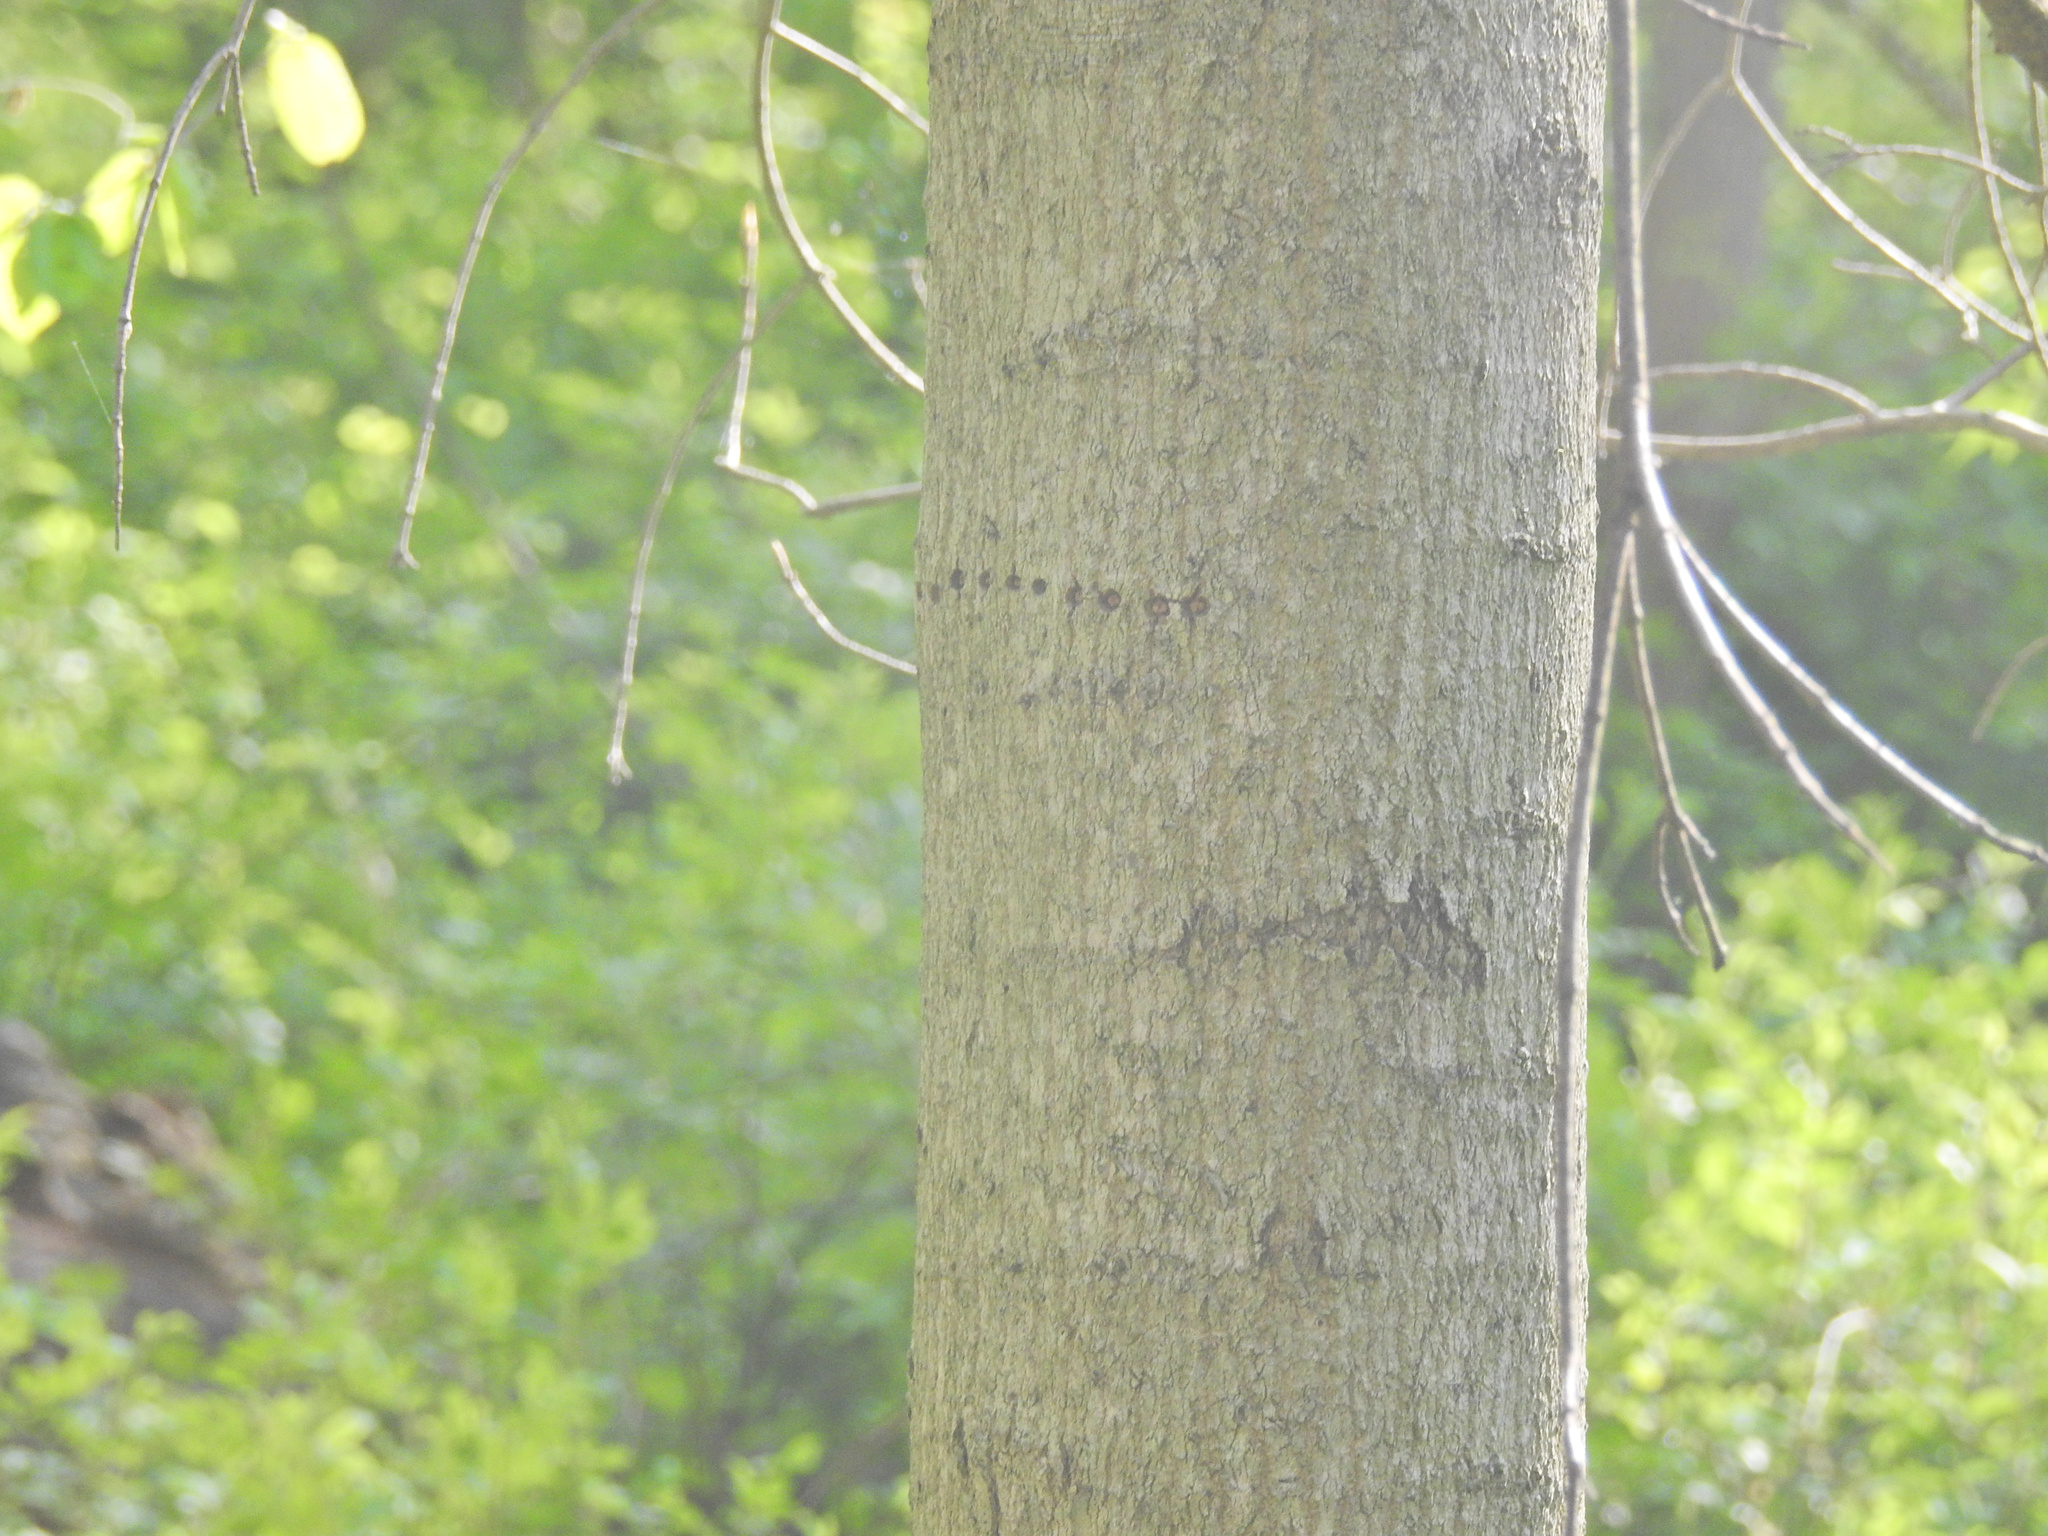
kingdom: Animalia
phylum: Chordata
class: Aves
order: Piciformes
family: Picidae
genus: Sphyrapicus
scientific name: Sphyrapicus varius
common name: Yellow-bellied sapsucker
